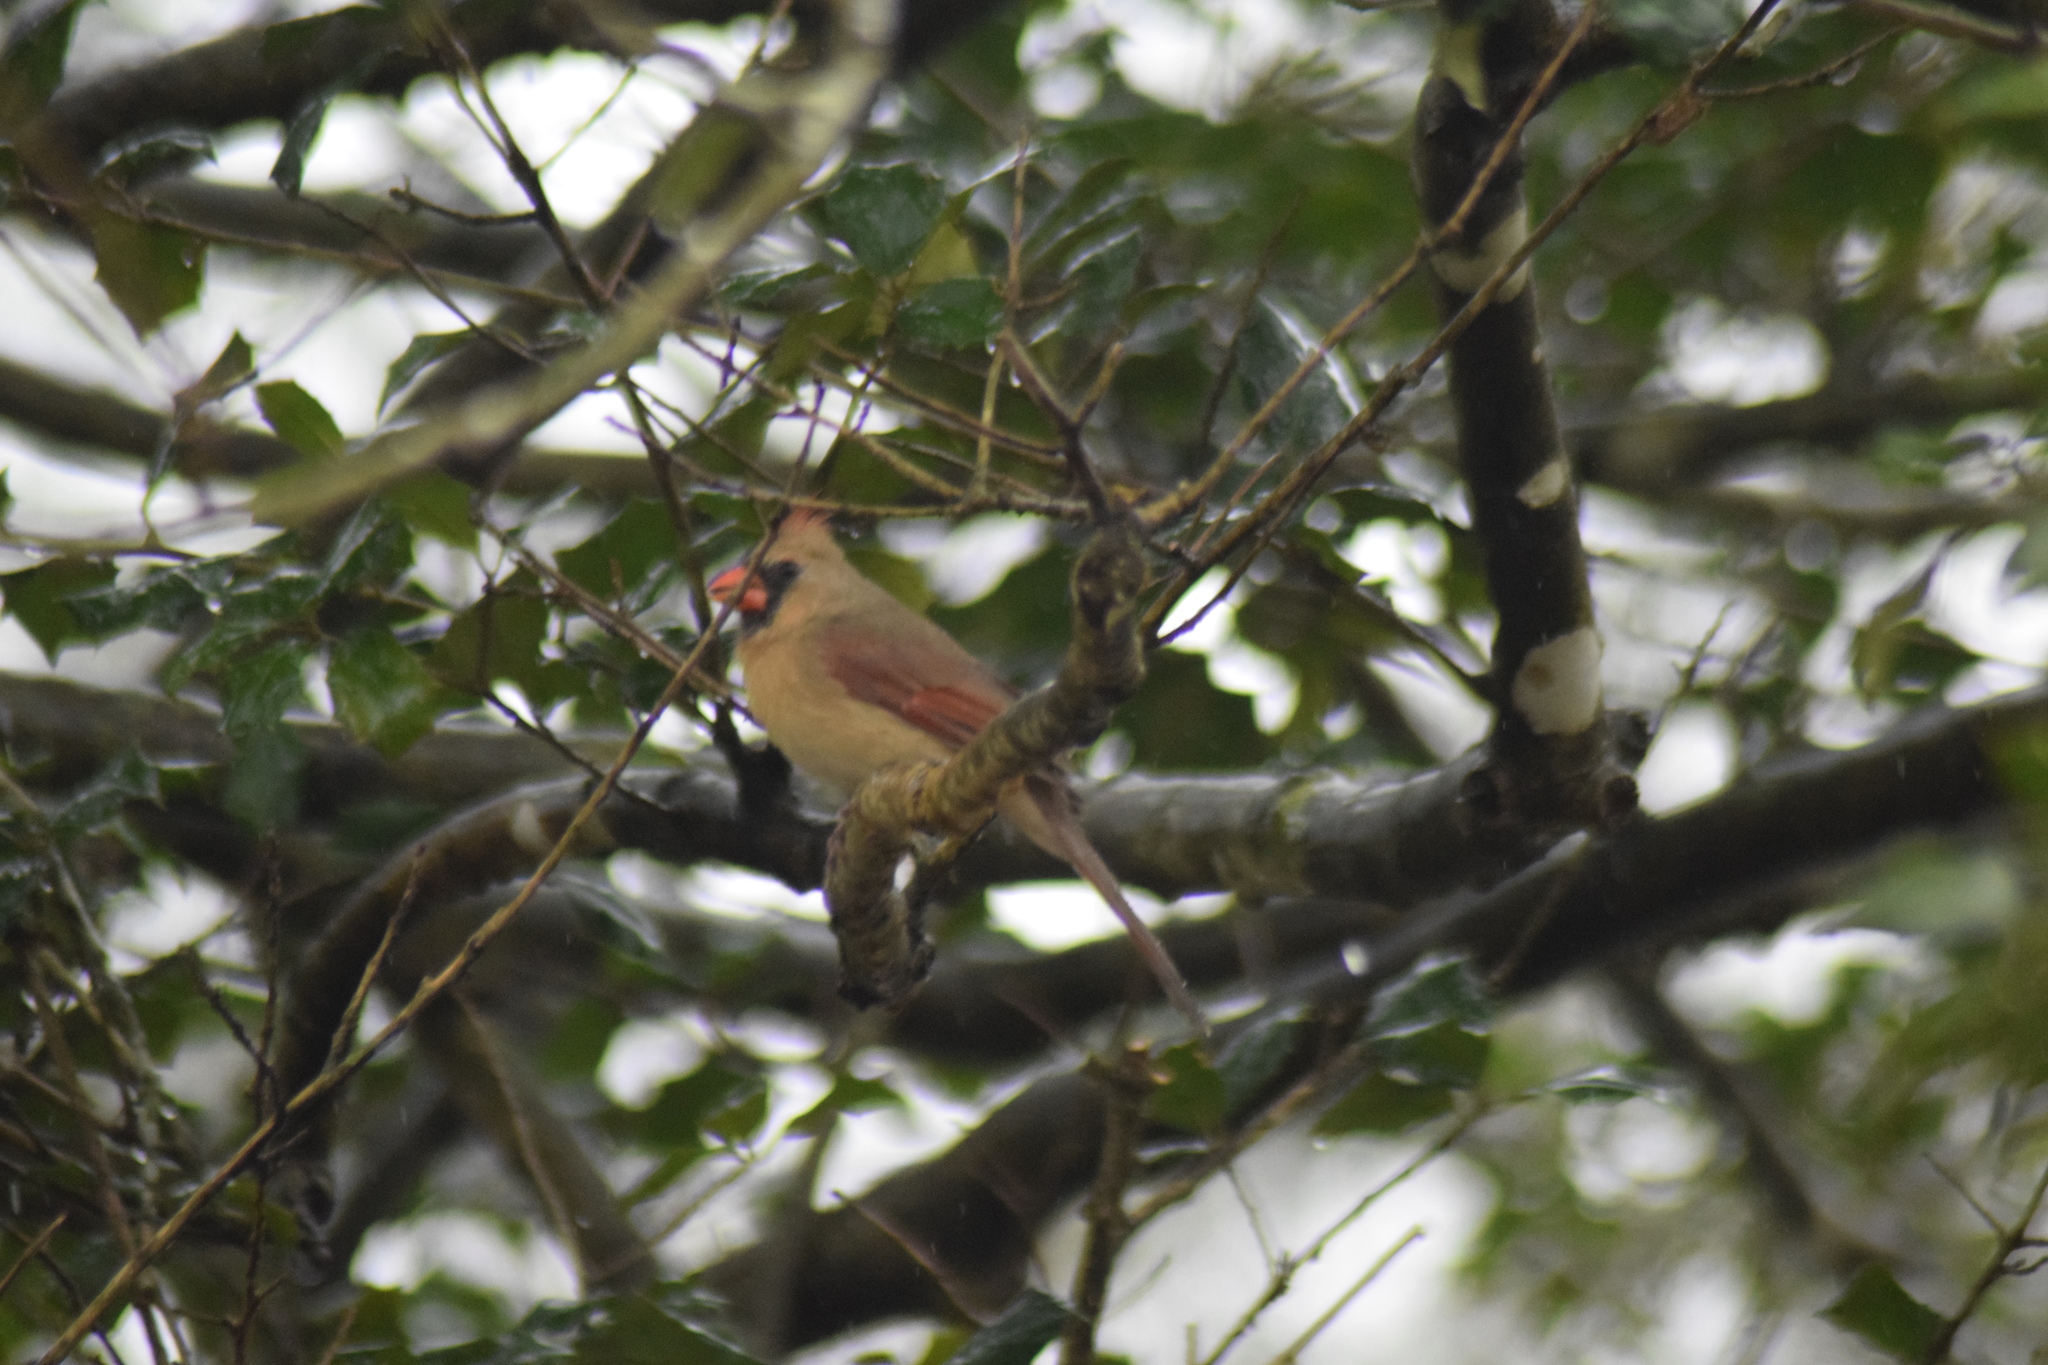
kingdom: Animalia
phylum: Chordata
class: Aves
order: Passeriformes
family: Cardinalidae
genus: Cardinalis
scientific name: Cardinalis cardinalis
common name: Northern cardinal
